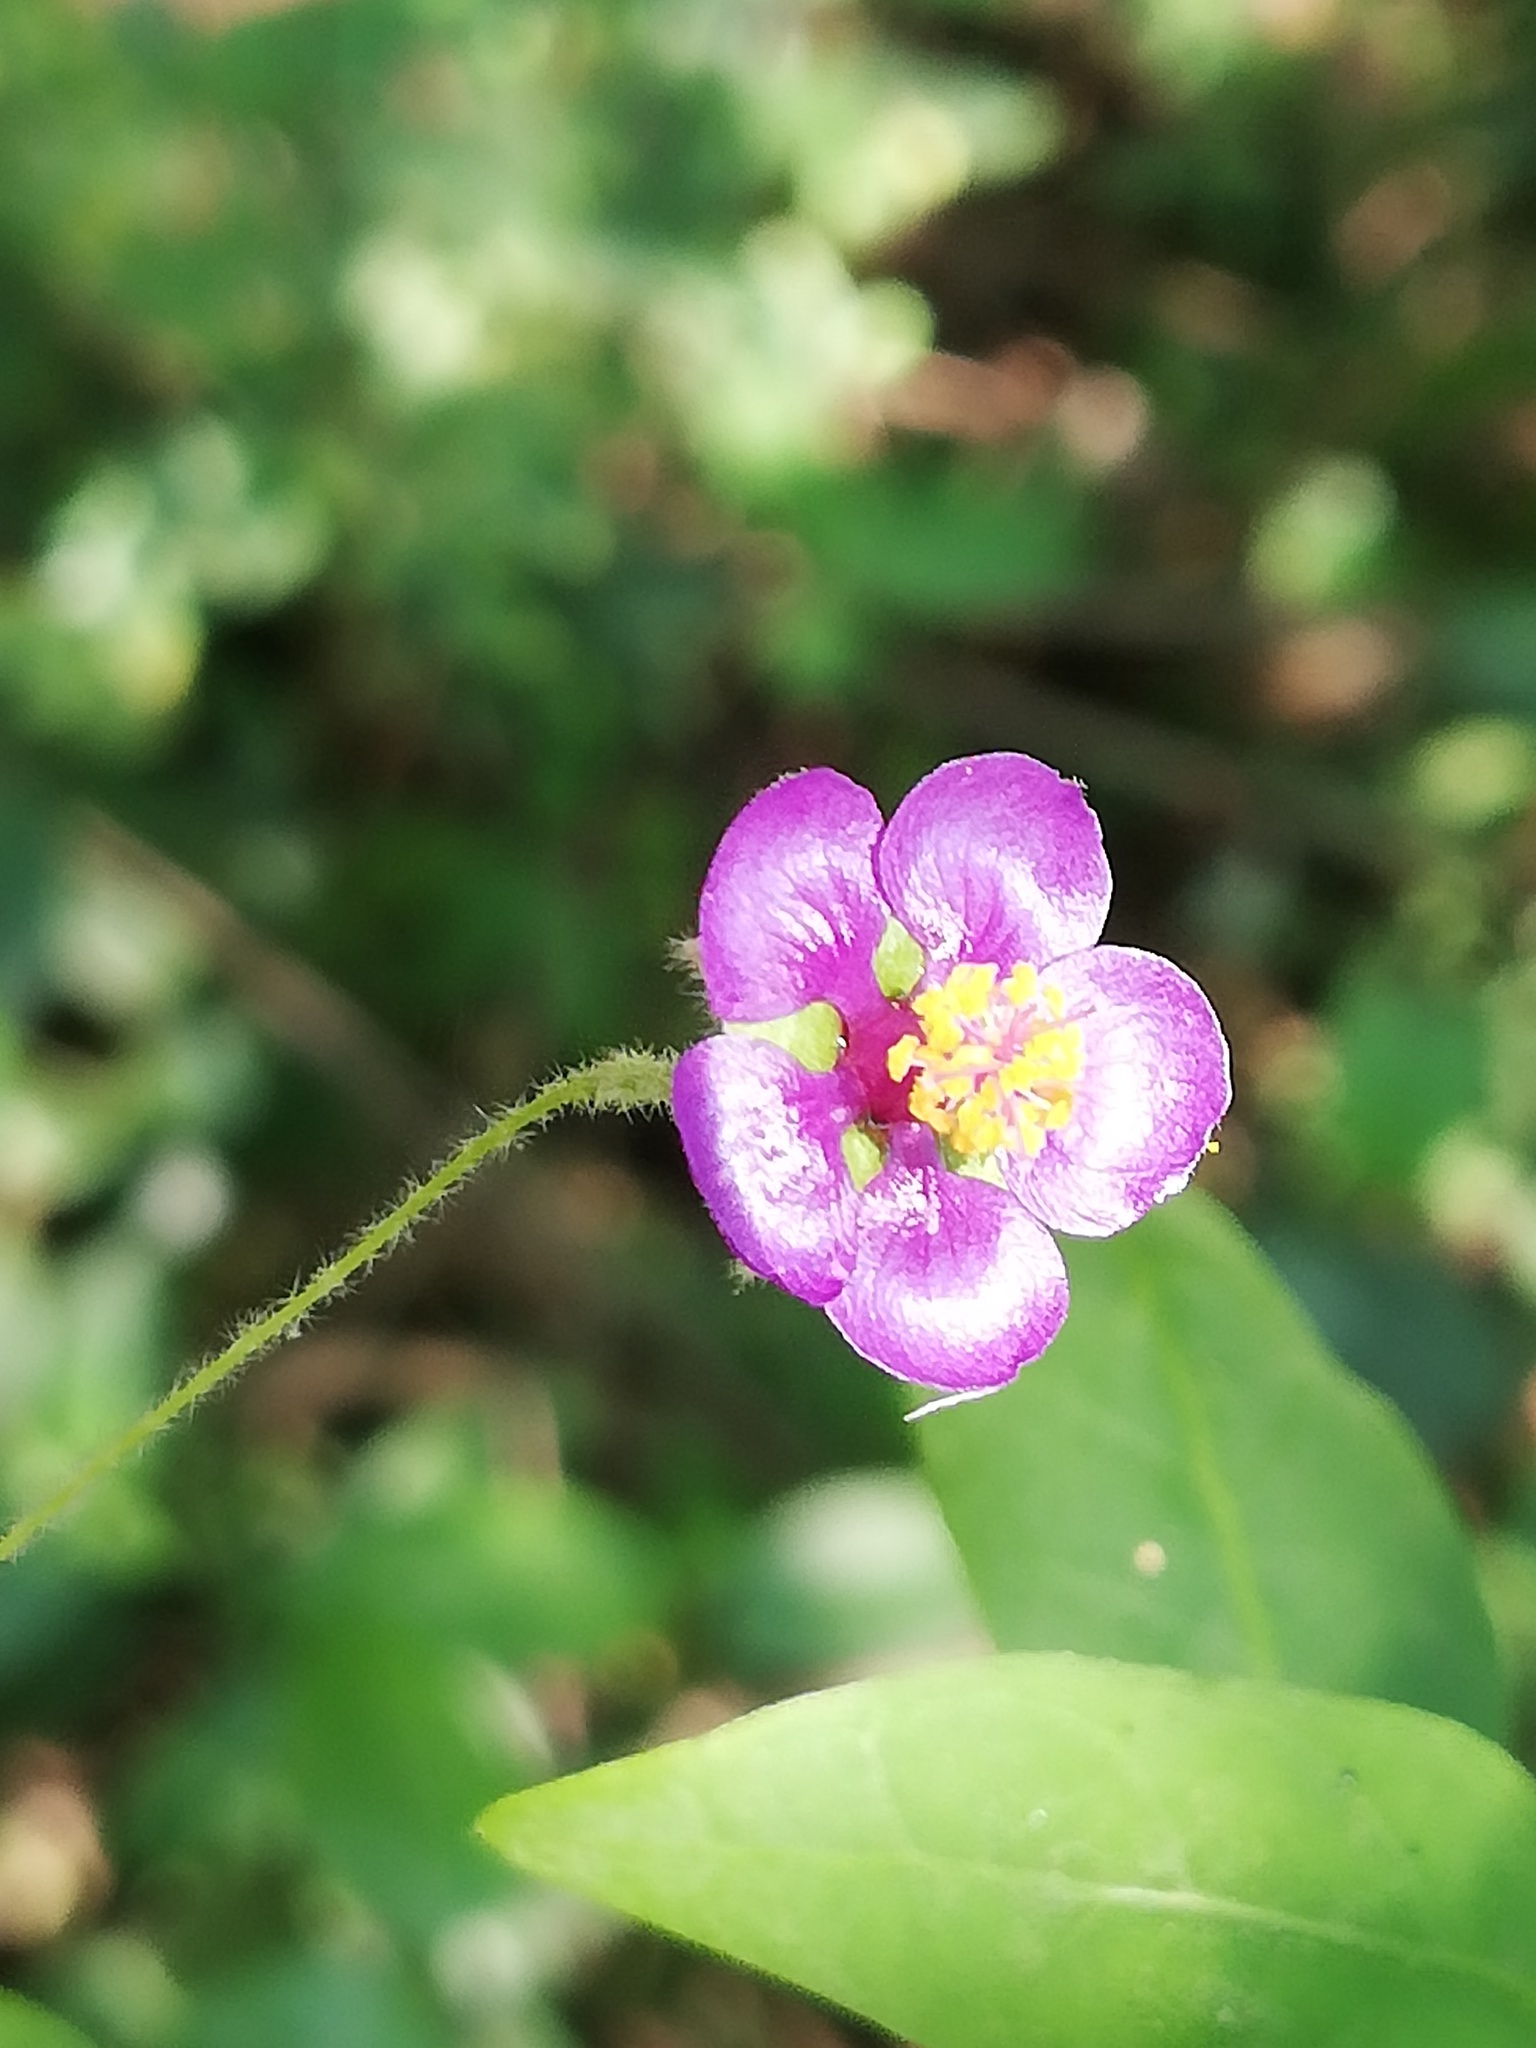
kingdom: Plantae
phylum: Tracheophyta
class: Magnoliopsida
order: Malvales
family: Malvaceae
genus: Meximalva
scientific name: Meximalva filipes
